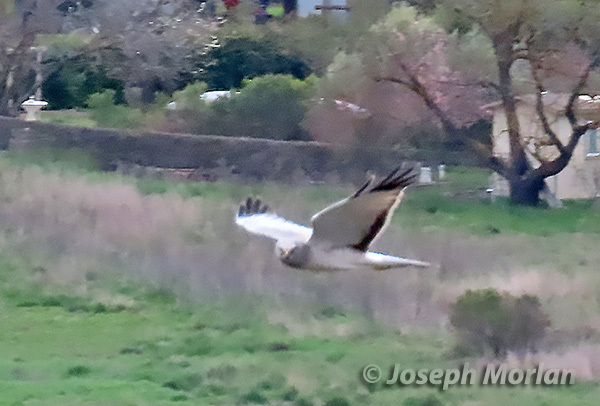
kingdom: Animalia
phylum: Chordata
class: Aves
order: Accipitriformes
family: Accipitridae
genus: Circus
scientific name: Circus cyaneus
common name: Hen harrier
